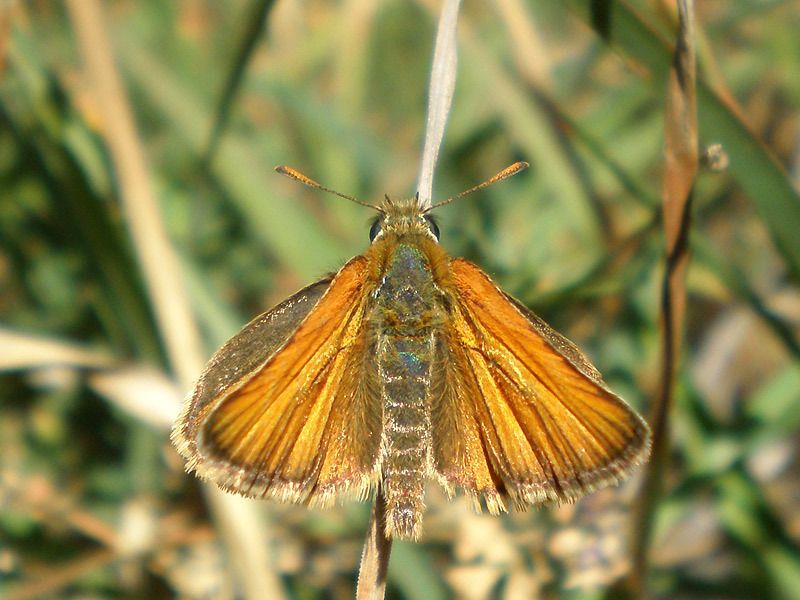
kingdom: Animalia
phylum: Arthropoda
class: Insecta
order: Lepidoptera
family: Hesperiidae
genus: Thymelicus
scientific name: Thymelicus sylvestris
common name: Small skipper
